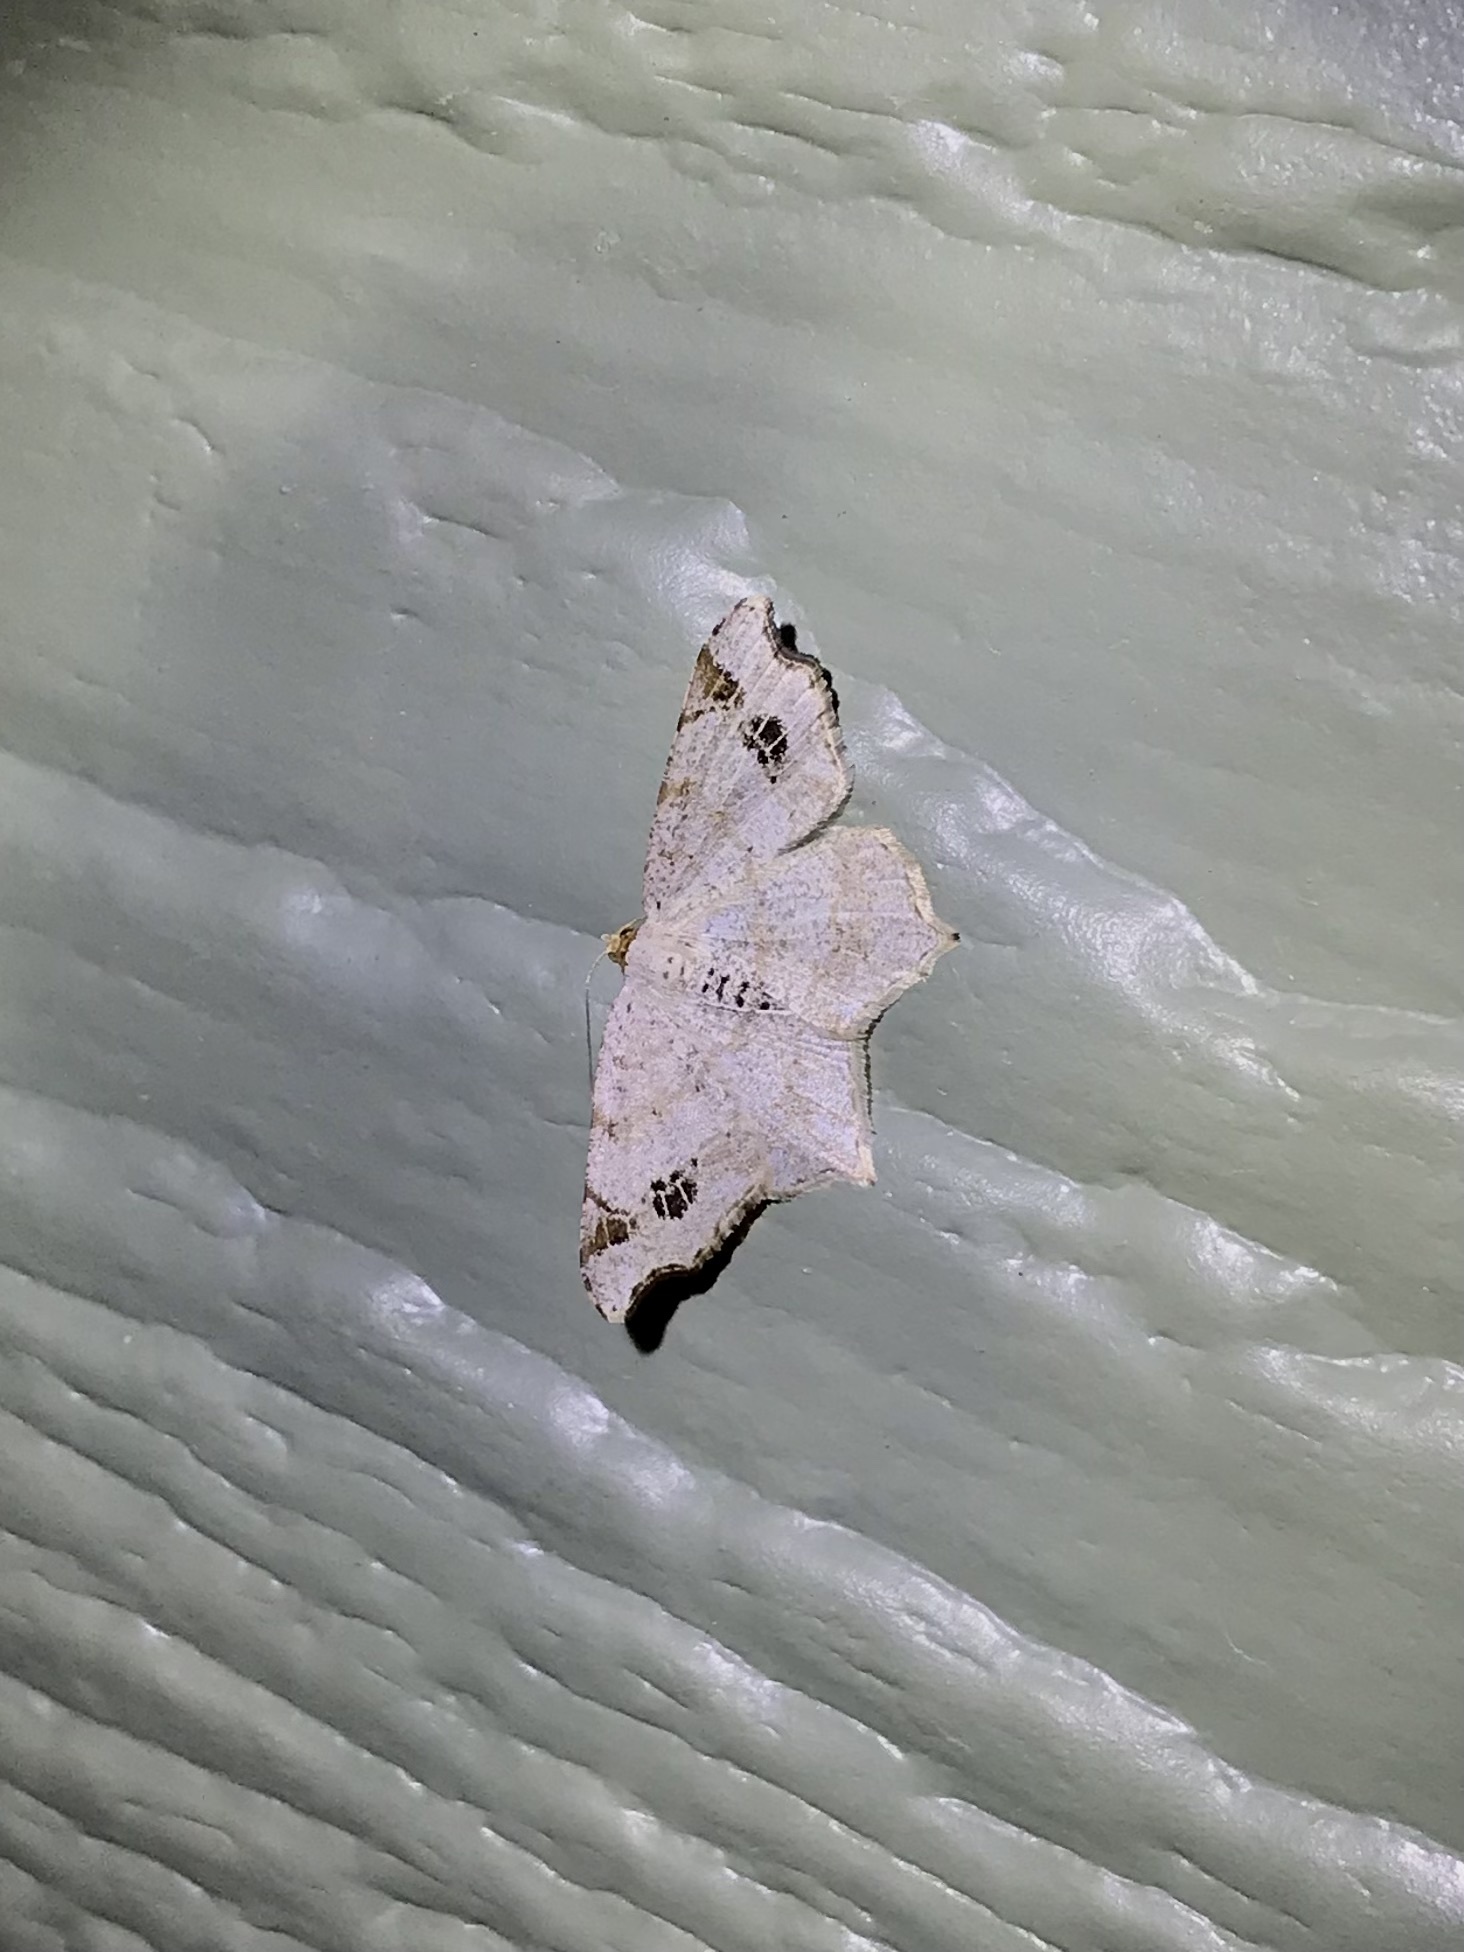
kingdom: Animalia
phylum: Arthropoda
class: Insecta
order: Lepidoptera
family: Geometridae
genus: Macaria
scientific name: Macaria aemulataria
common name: Common angle
